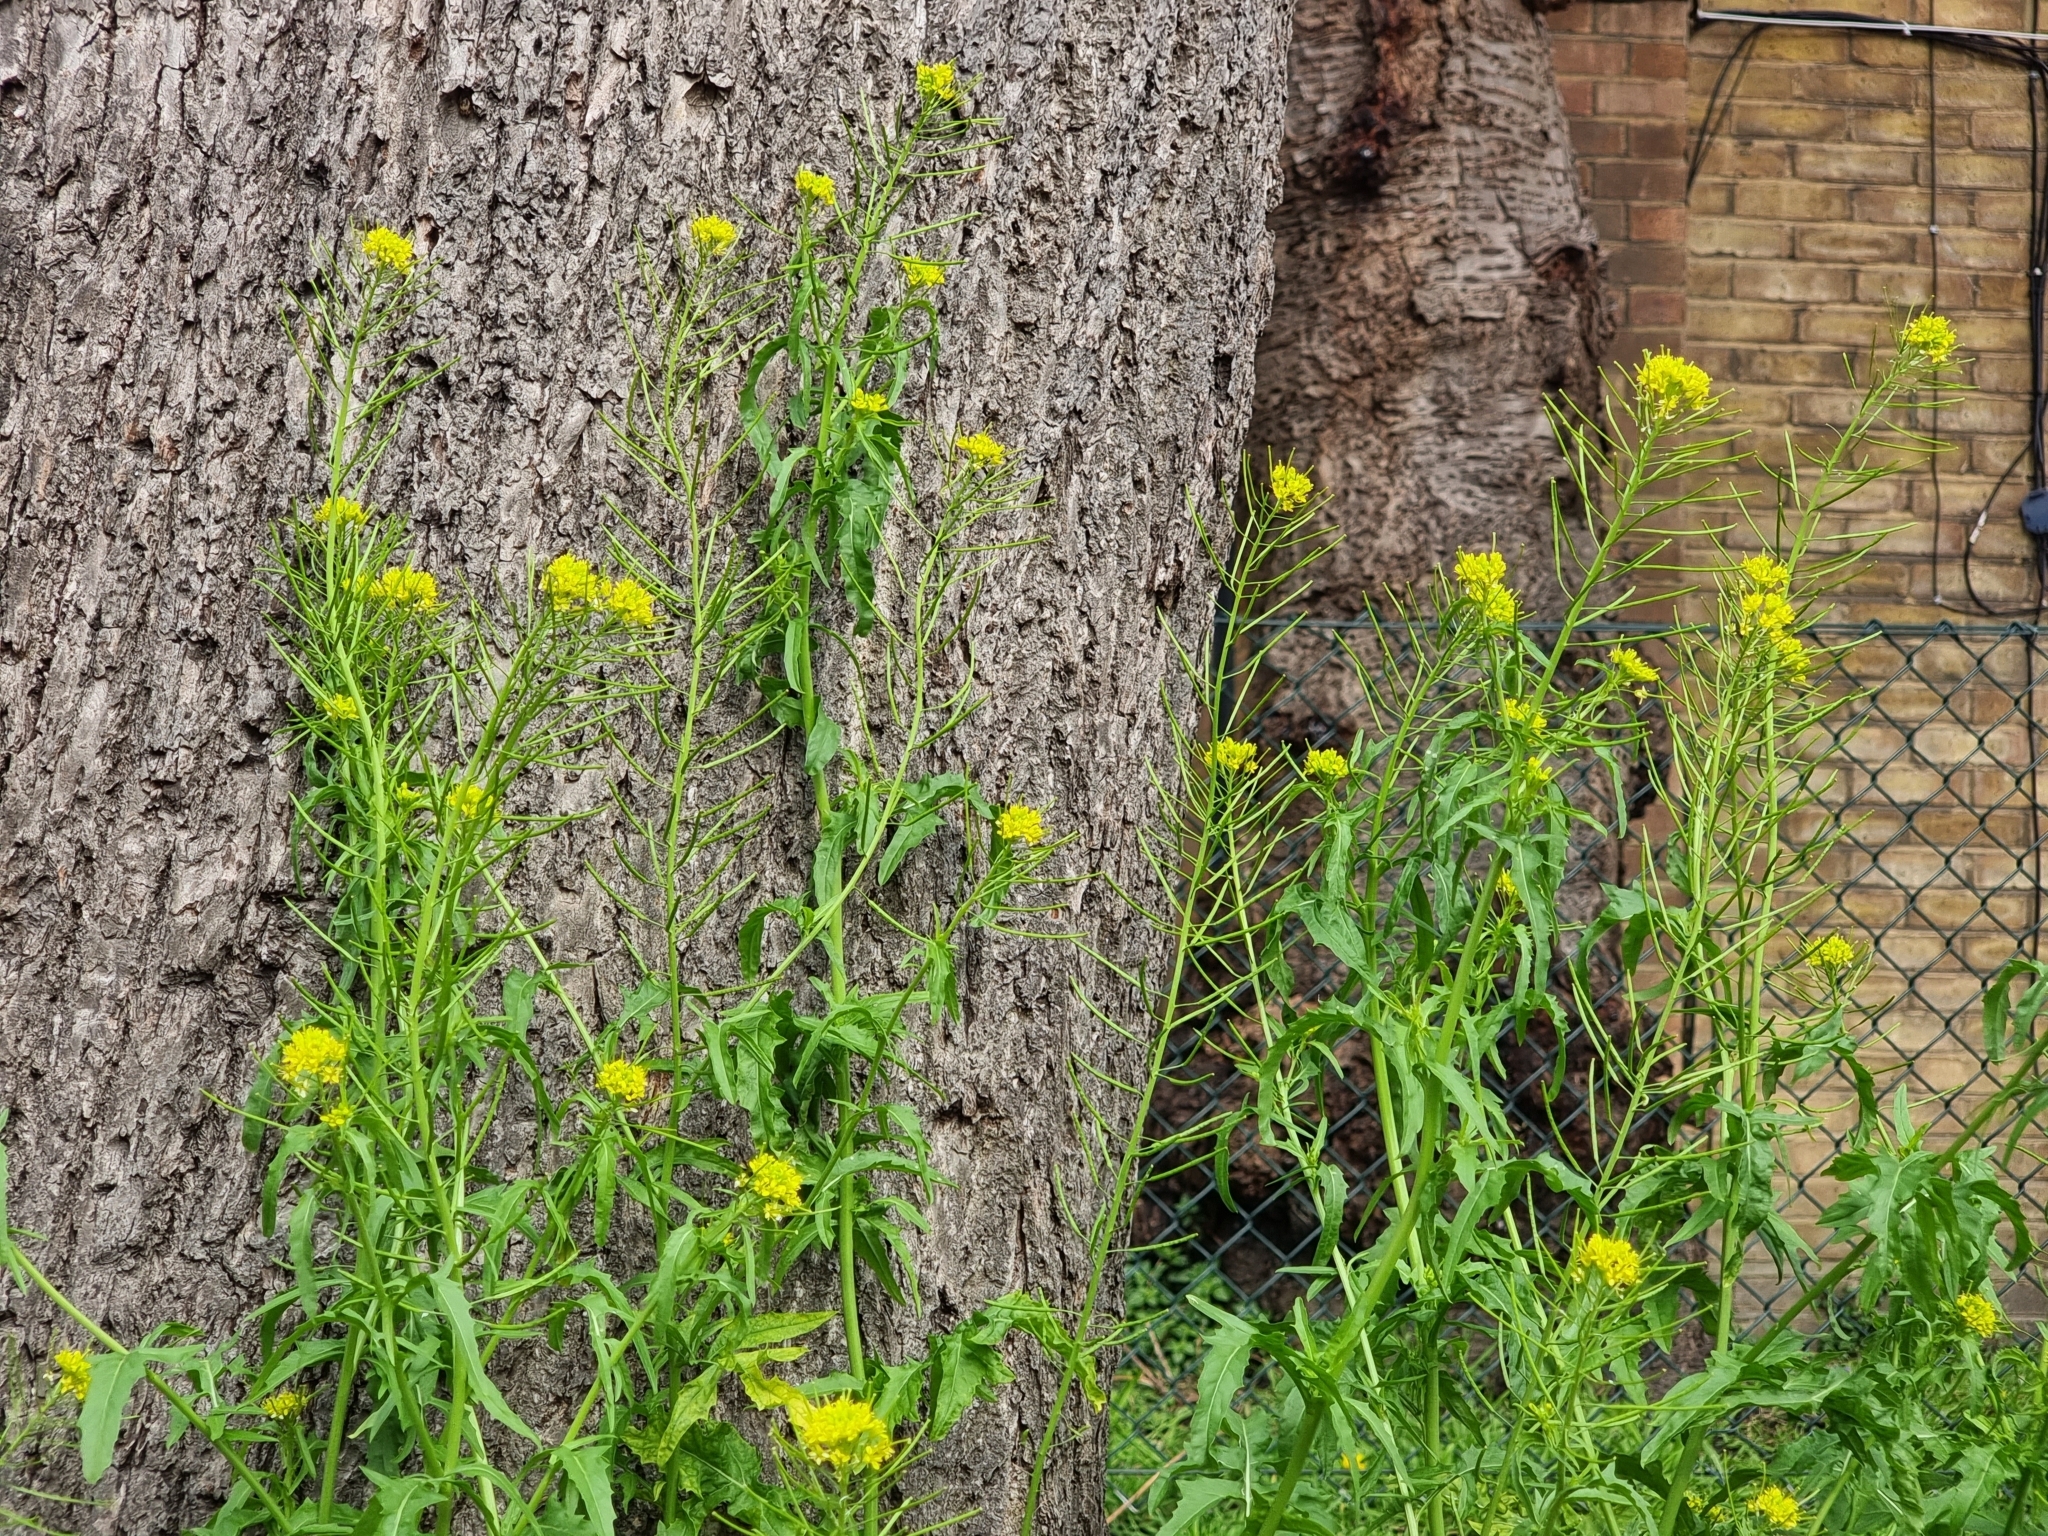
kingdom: Plantae
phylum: Tracheophyta
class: Magnoliopsida
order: Brassicales
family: Brassicaceae
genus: Sisymbrium
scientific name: Sisymbrium irio
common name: London rocket
